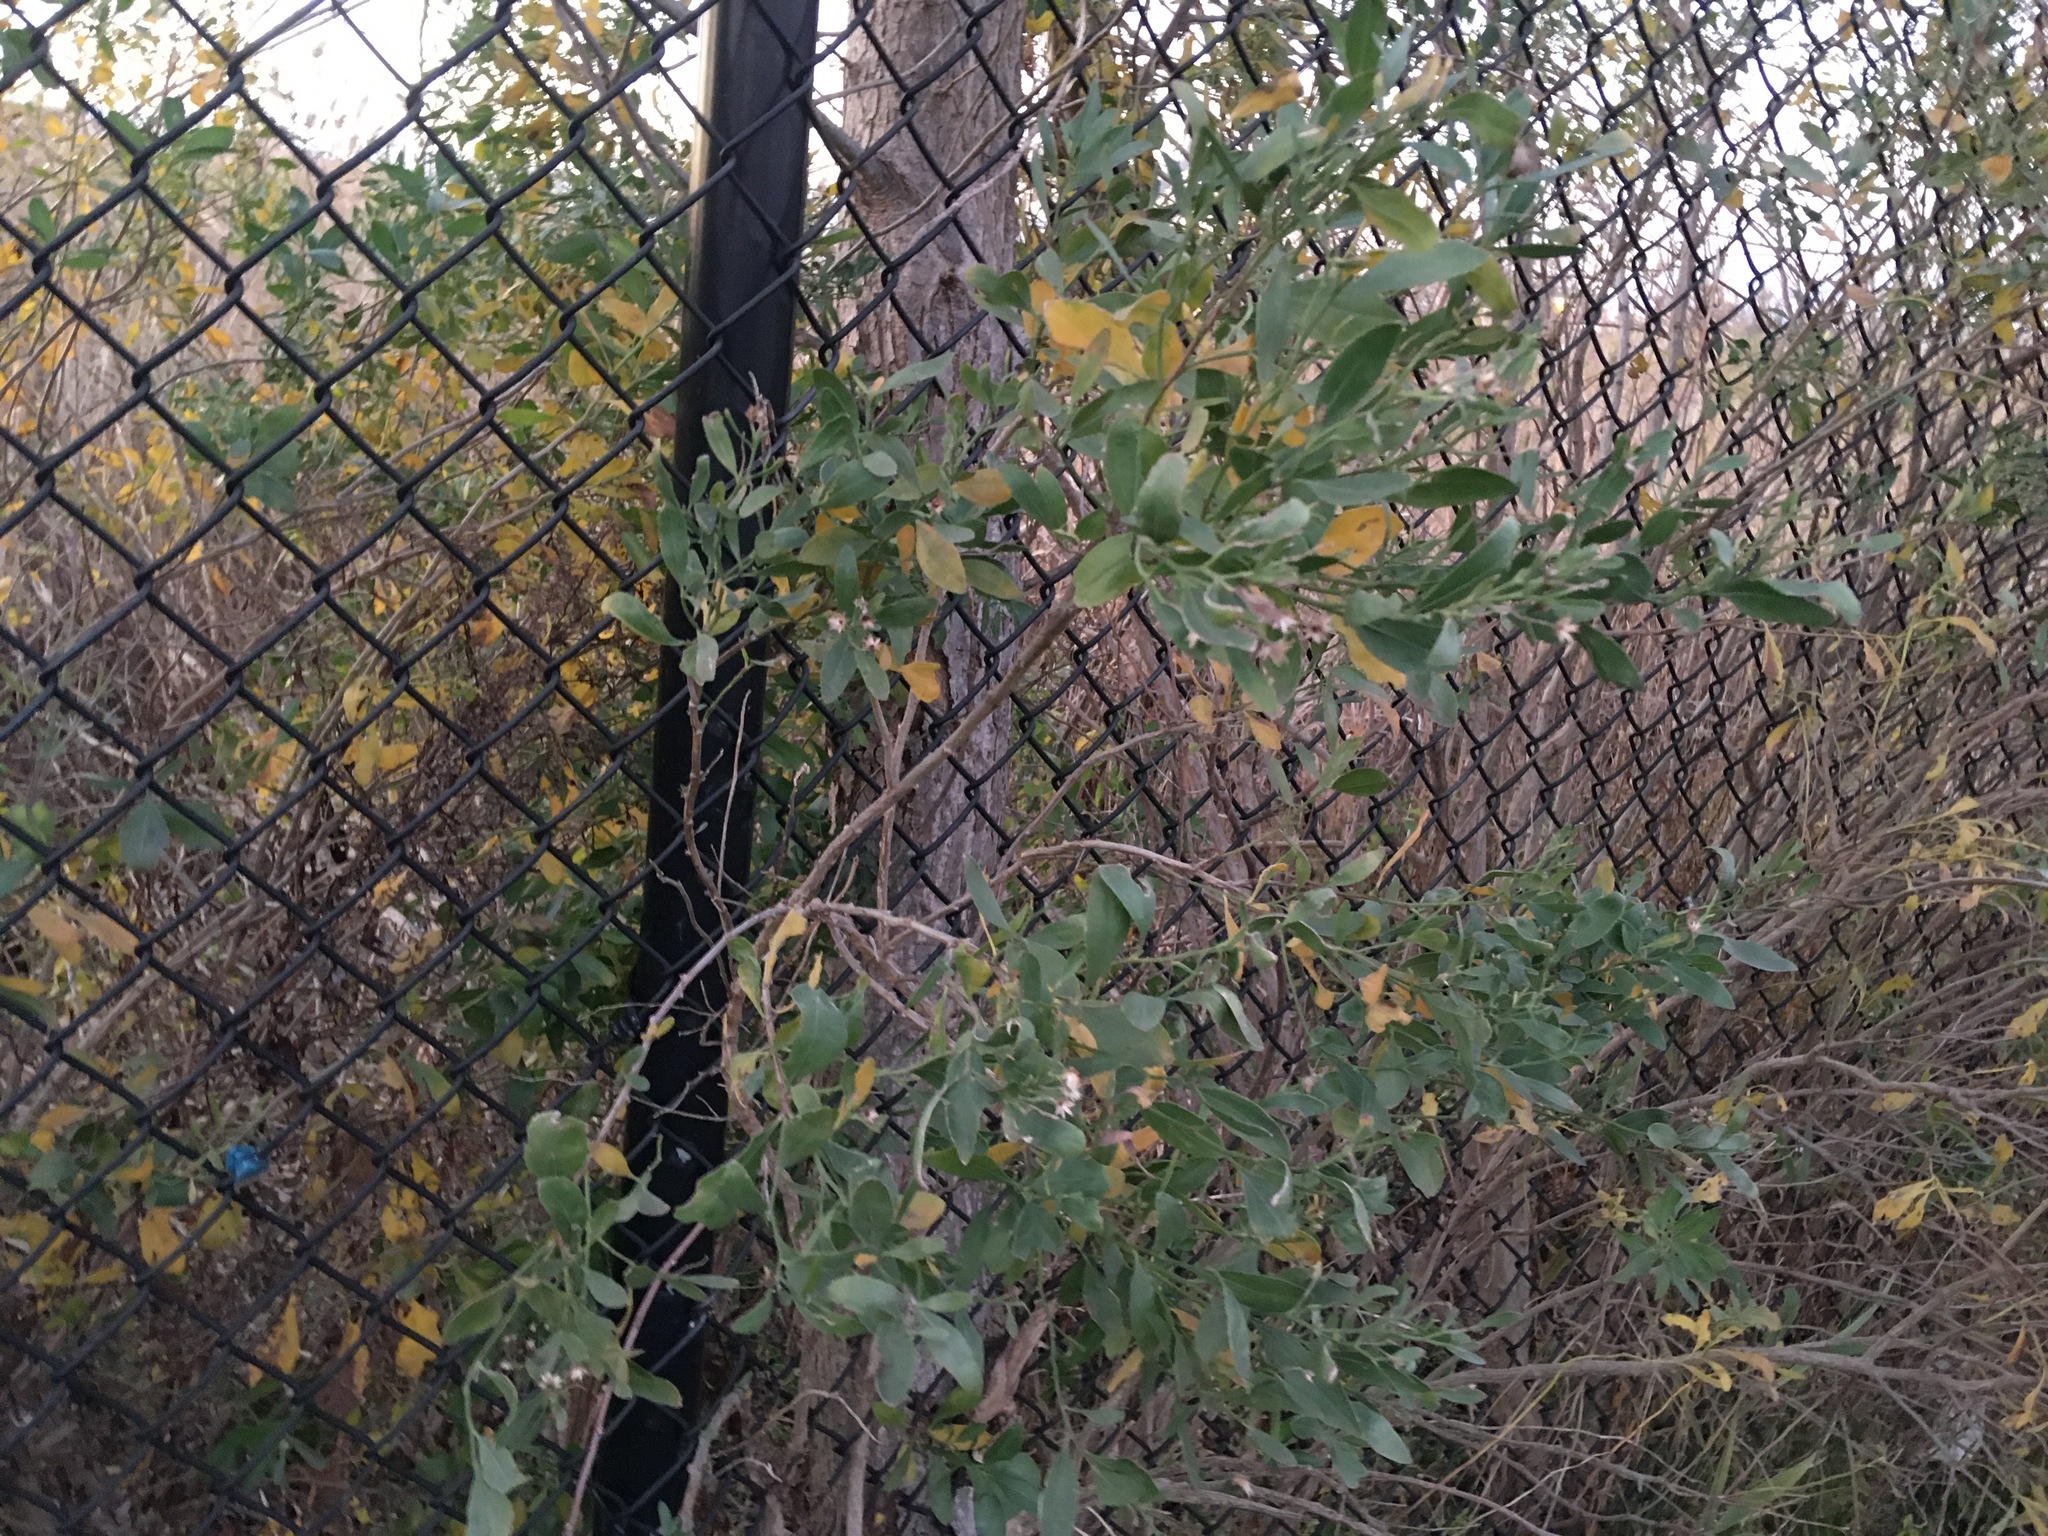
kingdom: Plantae
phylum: Tracheophyta
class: Magnoliopsida
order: Asterales
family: Asteraceae
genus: Baccharis
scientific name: Baccharis halimifolia
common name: Eastern baccharis
